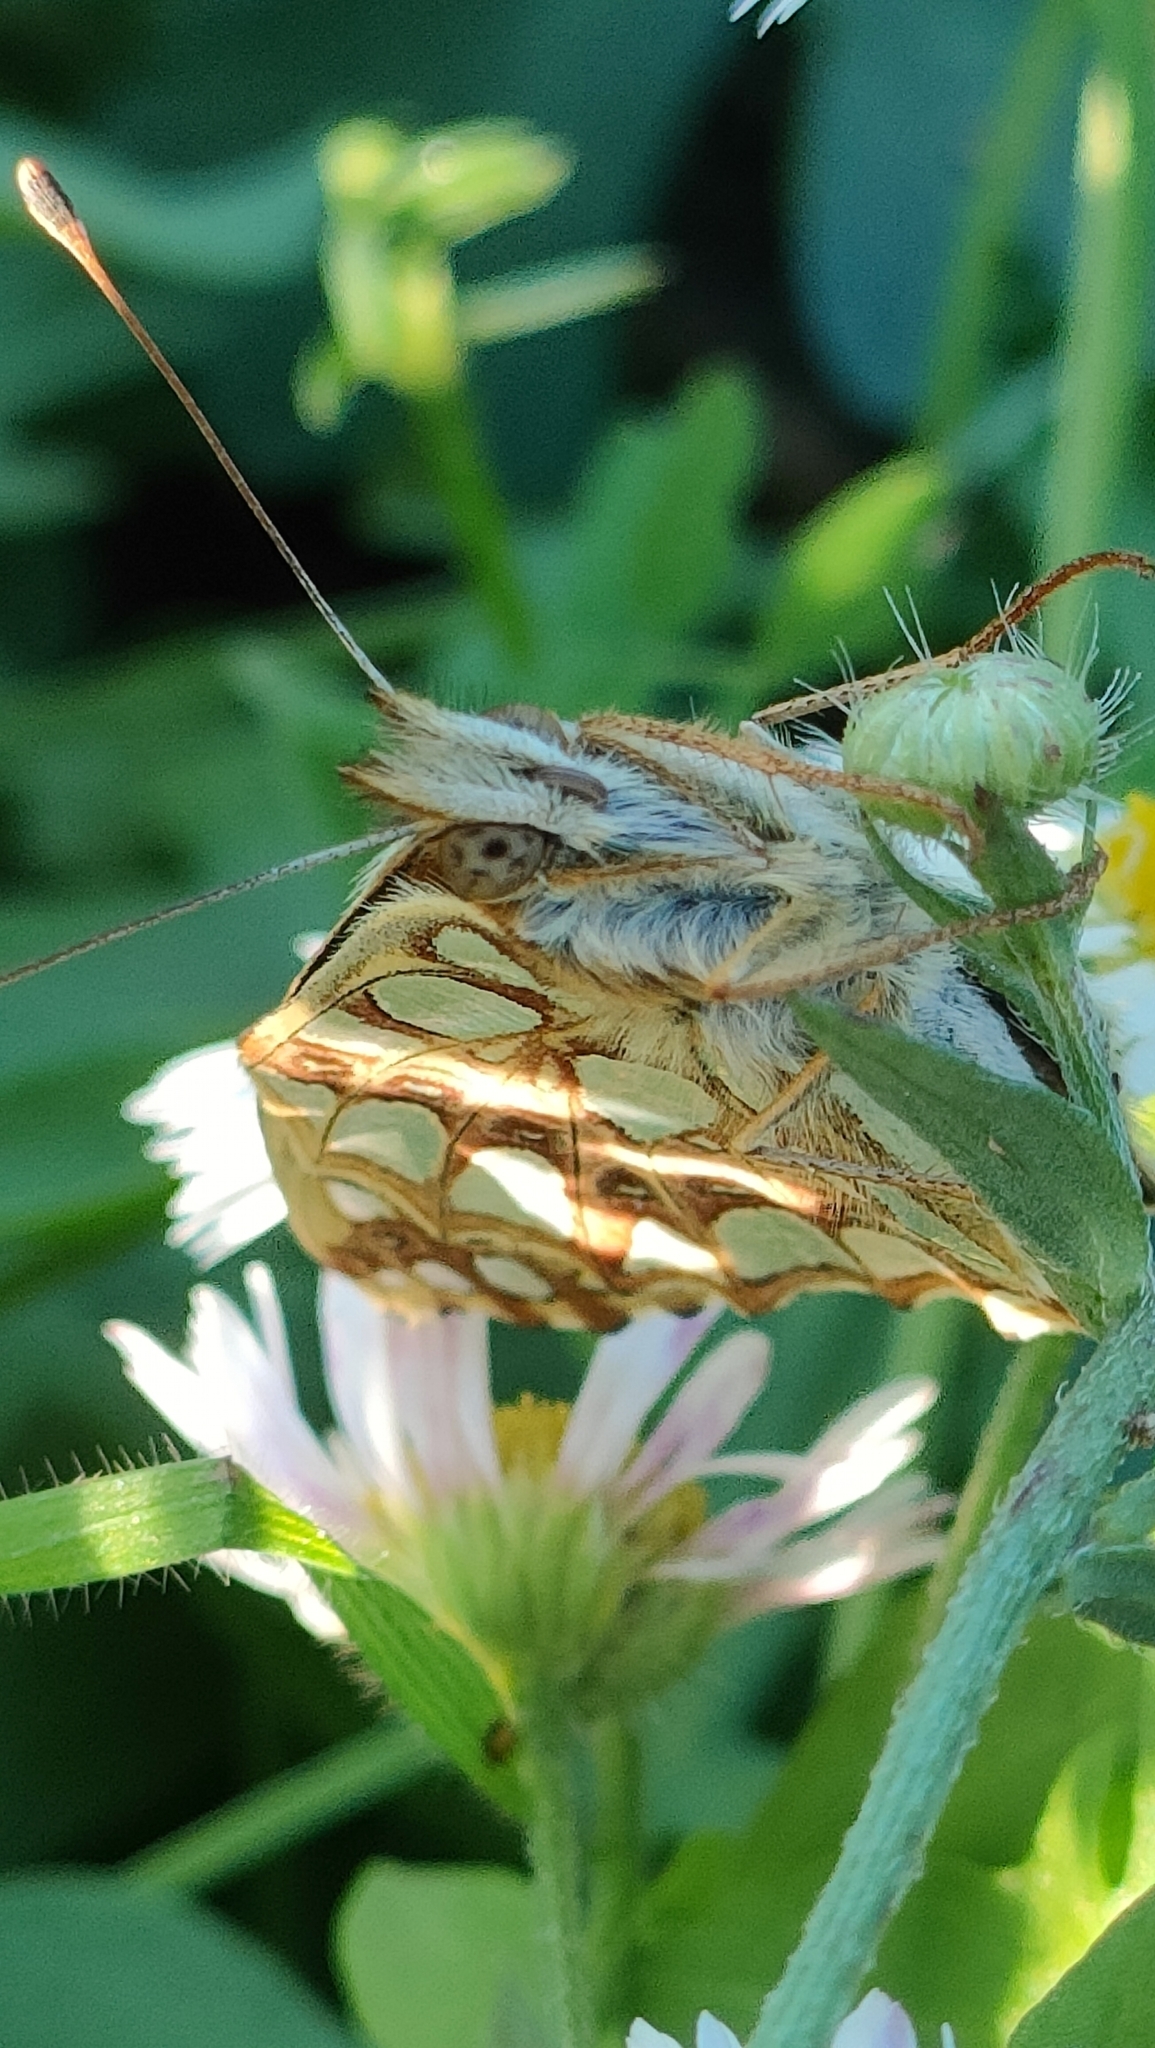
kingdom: Animalia
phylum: Arthropoda
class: Insecta
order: Lepidoptera
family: Nymphalidae
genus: Issoria
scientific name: Issoria lathonia
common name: Queen of spain fritillary
